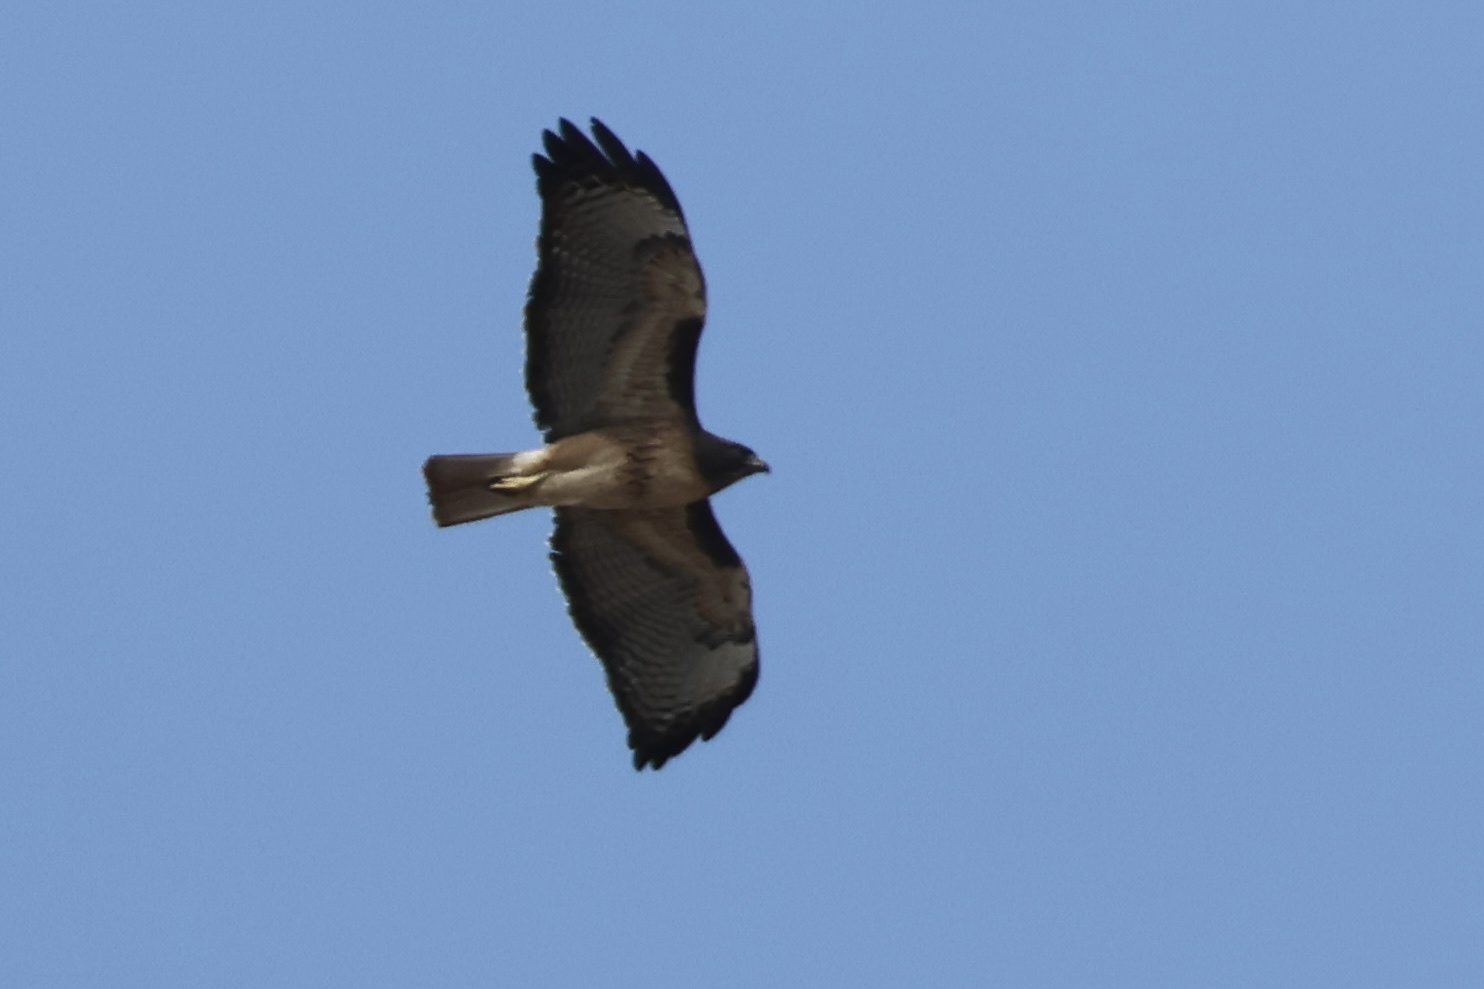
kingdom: Animalia
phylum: Chordata
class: Aves
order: Accipitriformes
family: Accipitridae
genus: Buteo
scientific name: Buteo jamaicensis
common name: Red-tailed hawk
